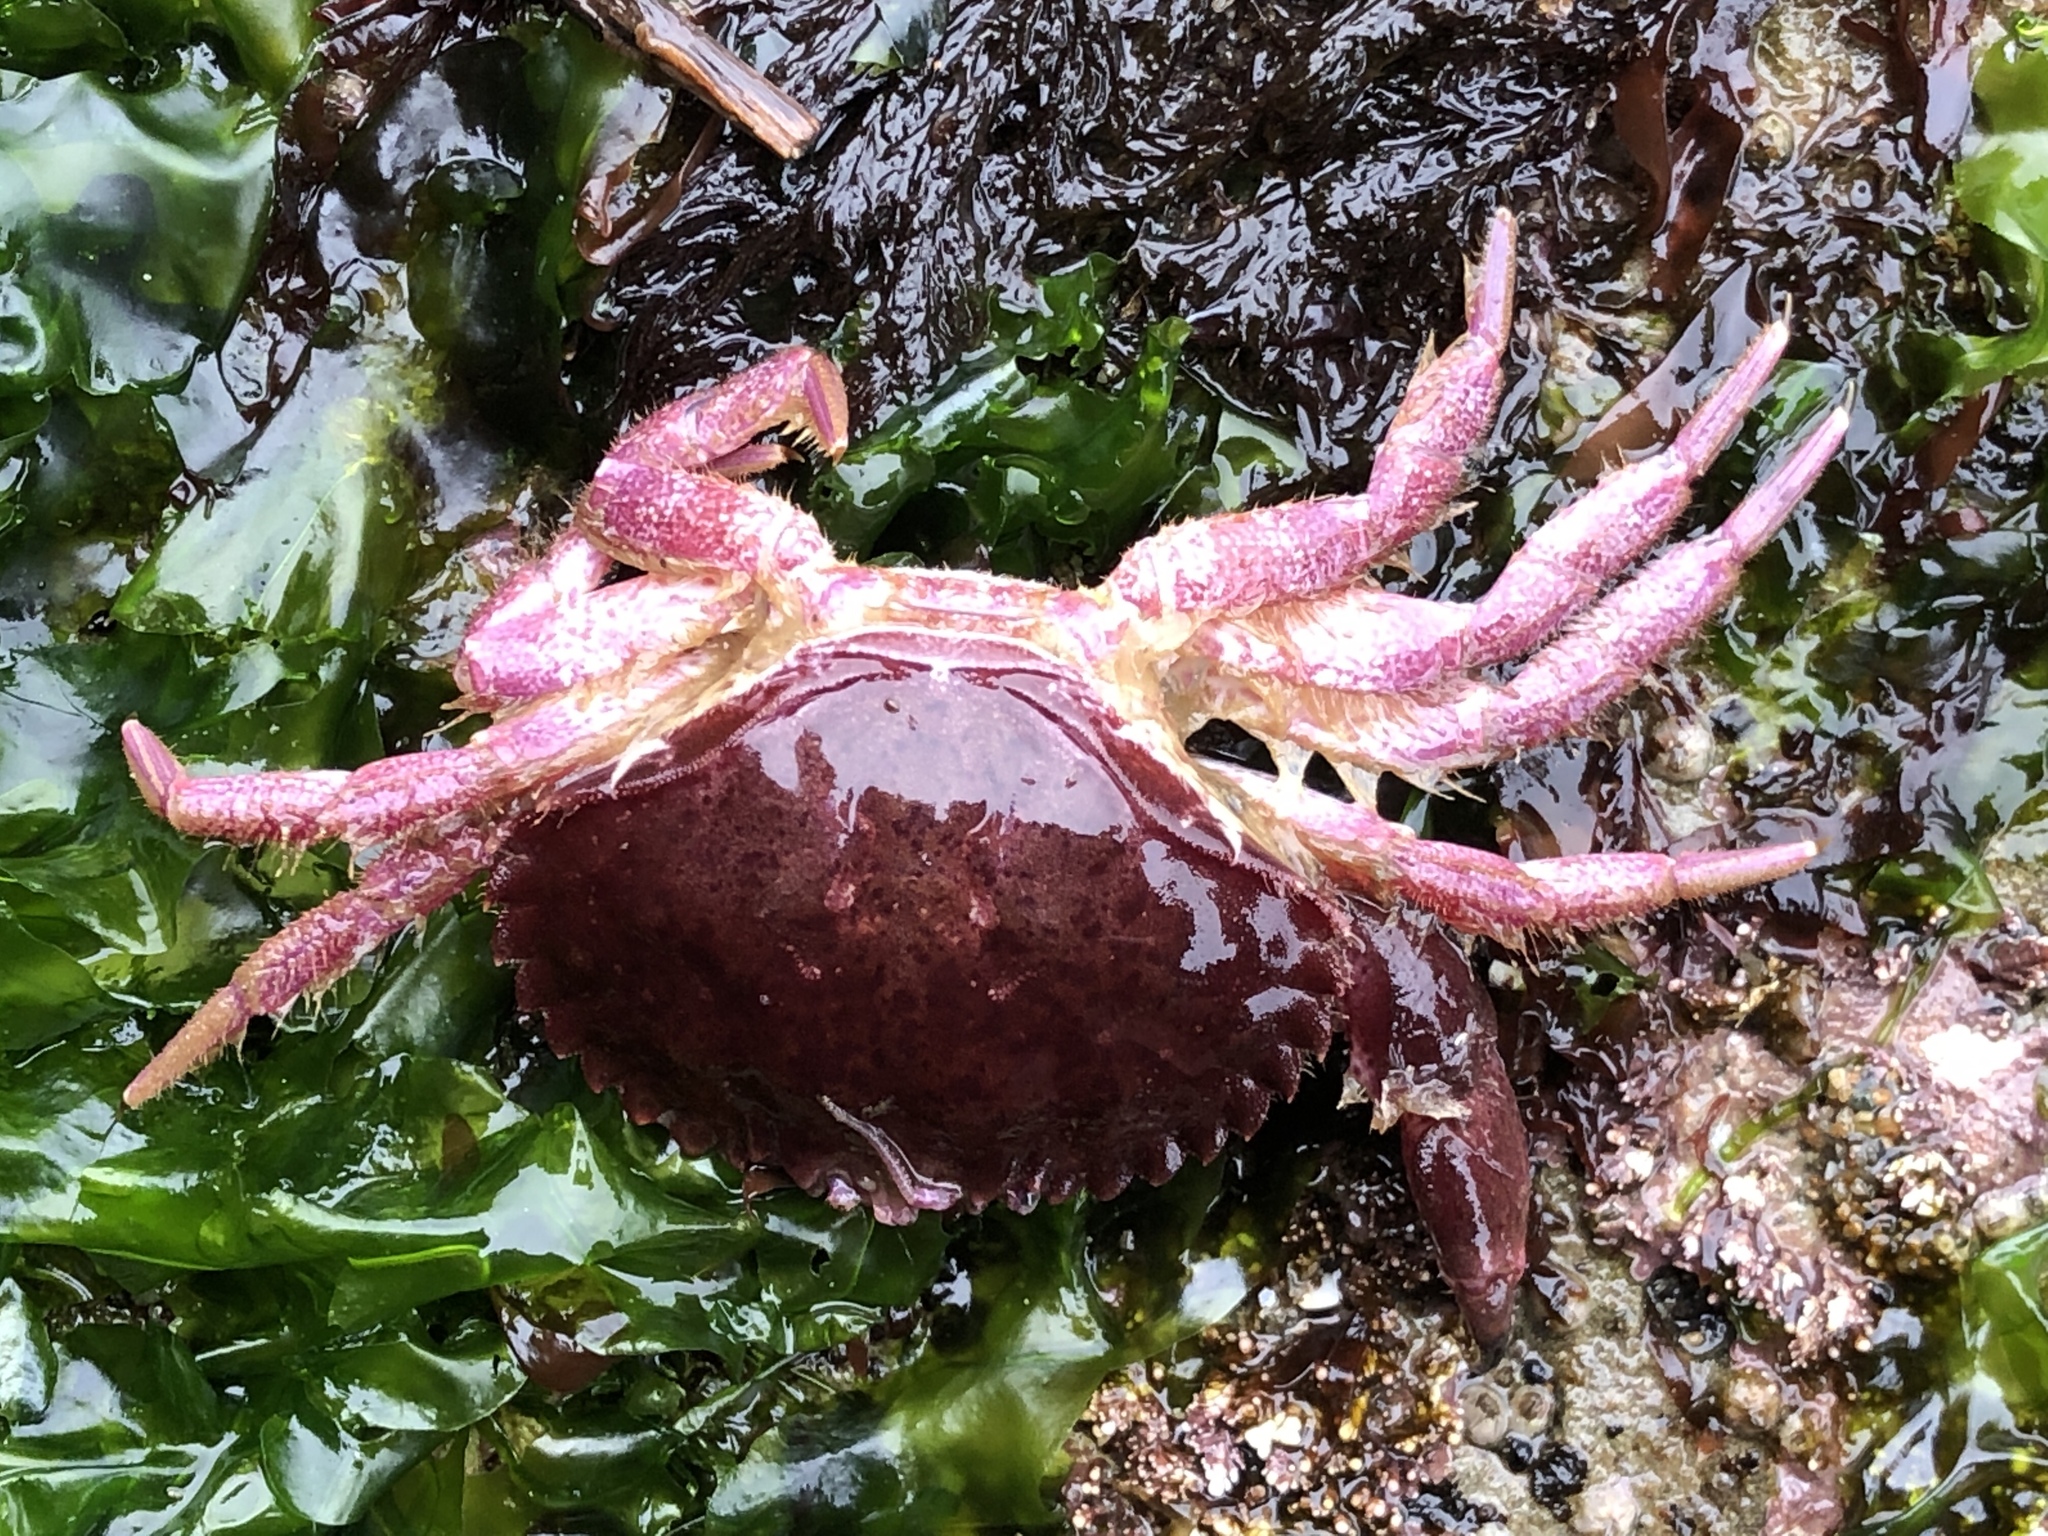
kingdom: Animalia
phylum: Arthropoda
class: Malacostraca
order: Decapoda
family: Cancridae
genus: Romaleon
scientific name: Romaleon antennarium
